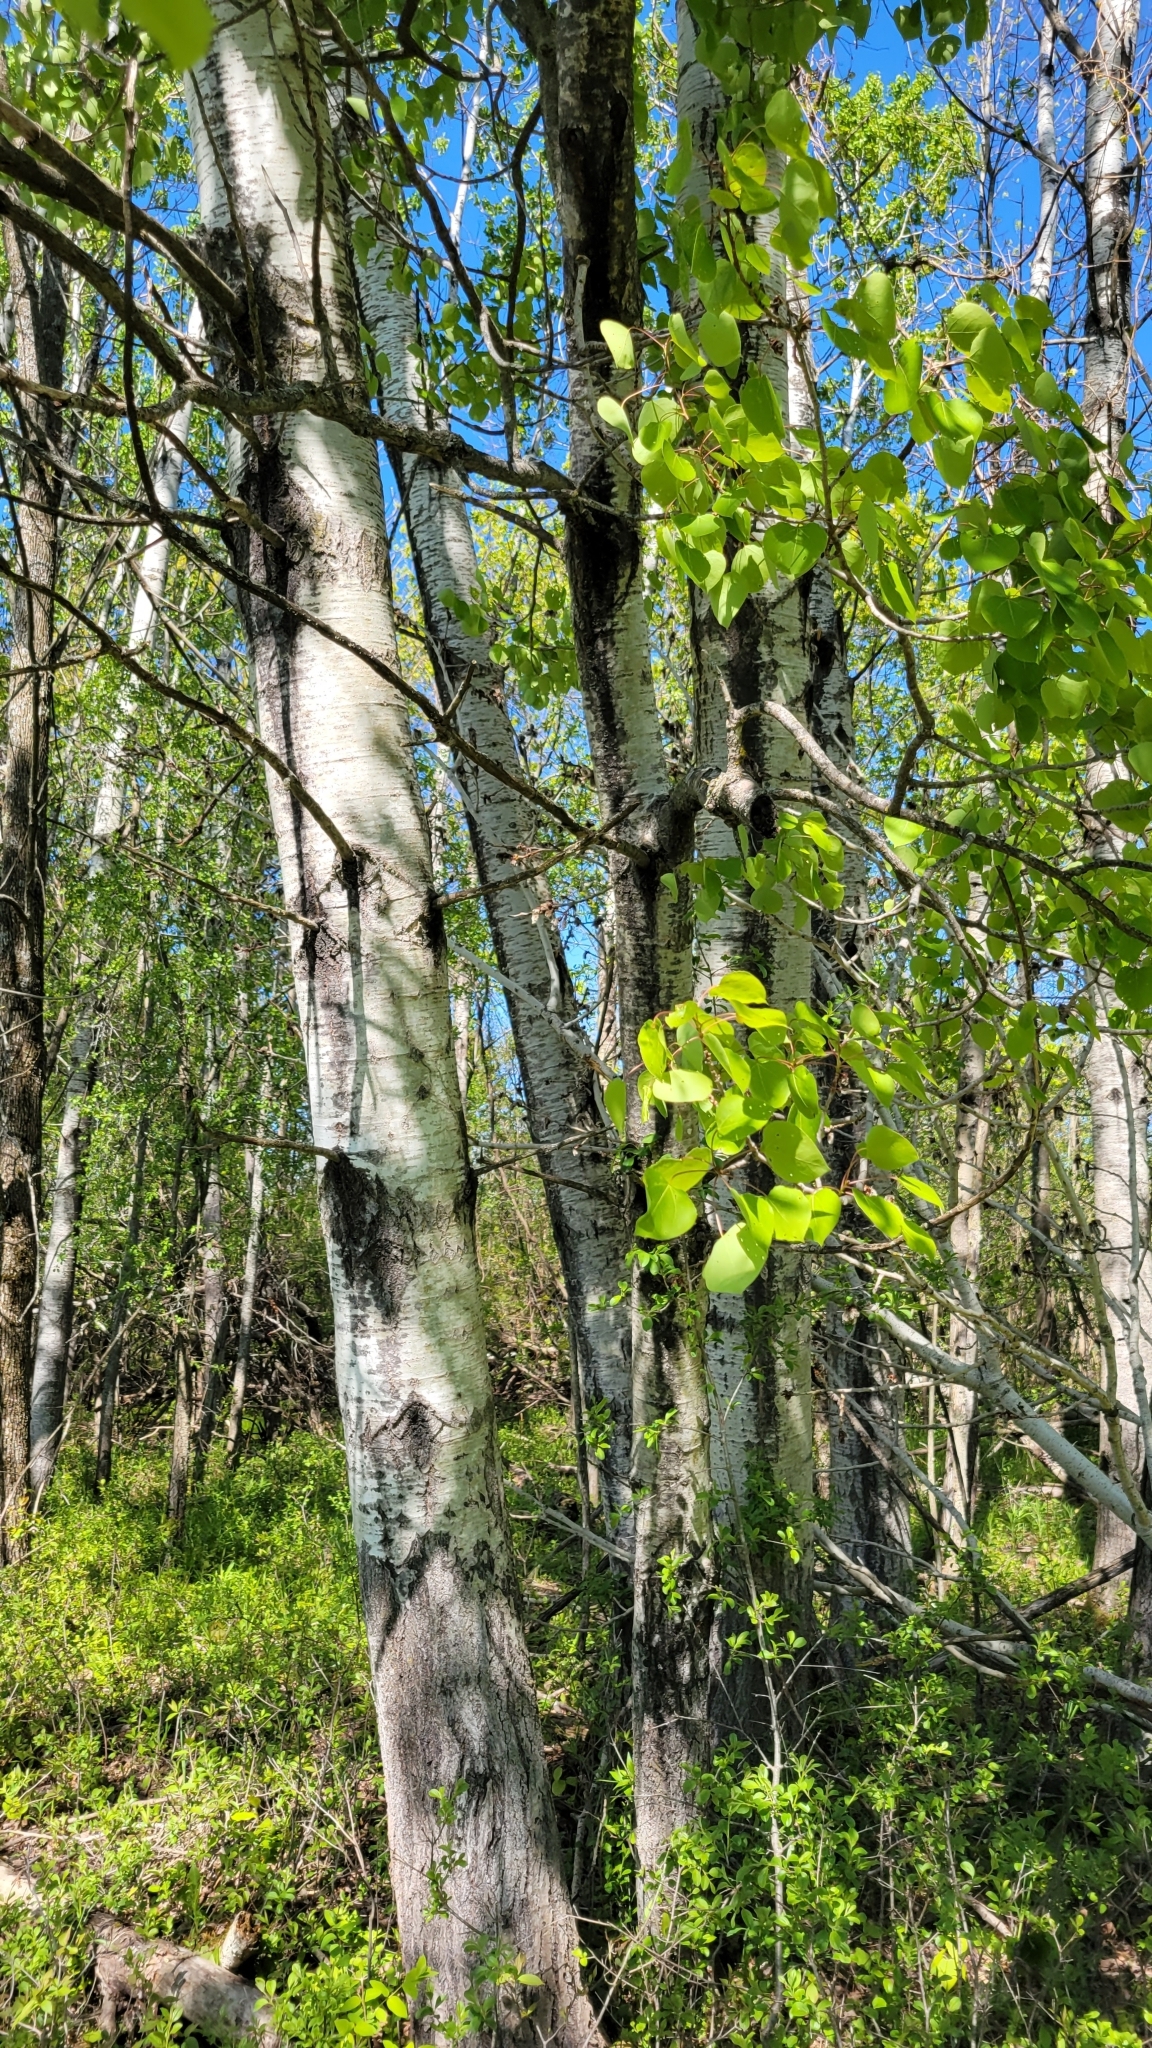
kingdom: Plantae
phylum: Tracheophyta
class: Magnoliopsida
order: Malpighiales
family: Salicaceae
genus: Populus
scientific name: Populus tremuloides
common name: Quaking aspen
